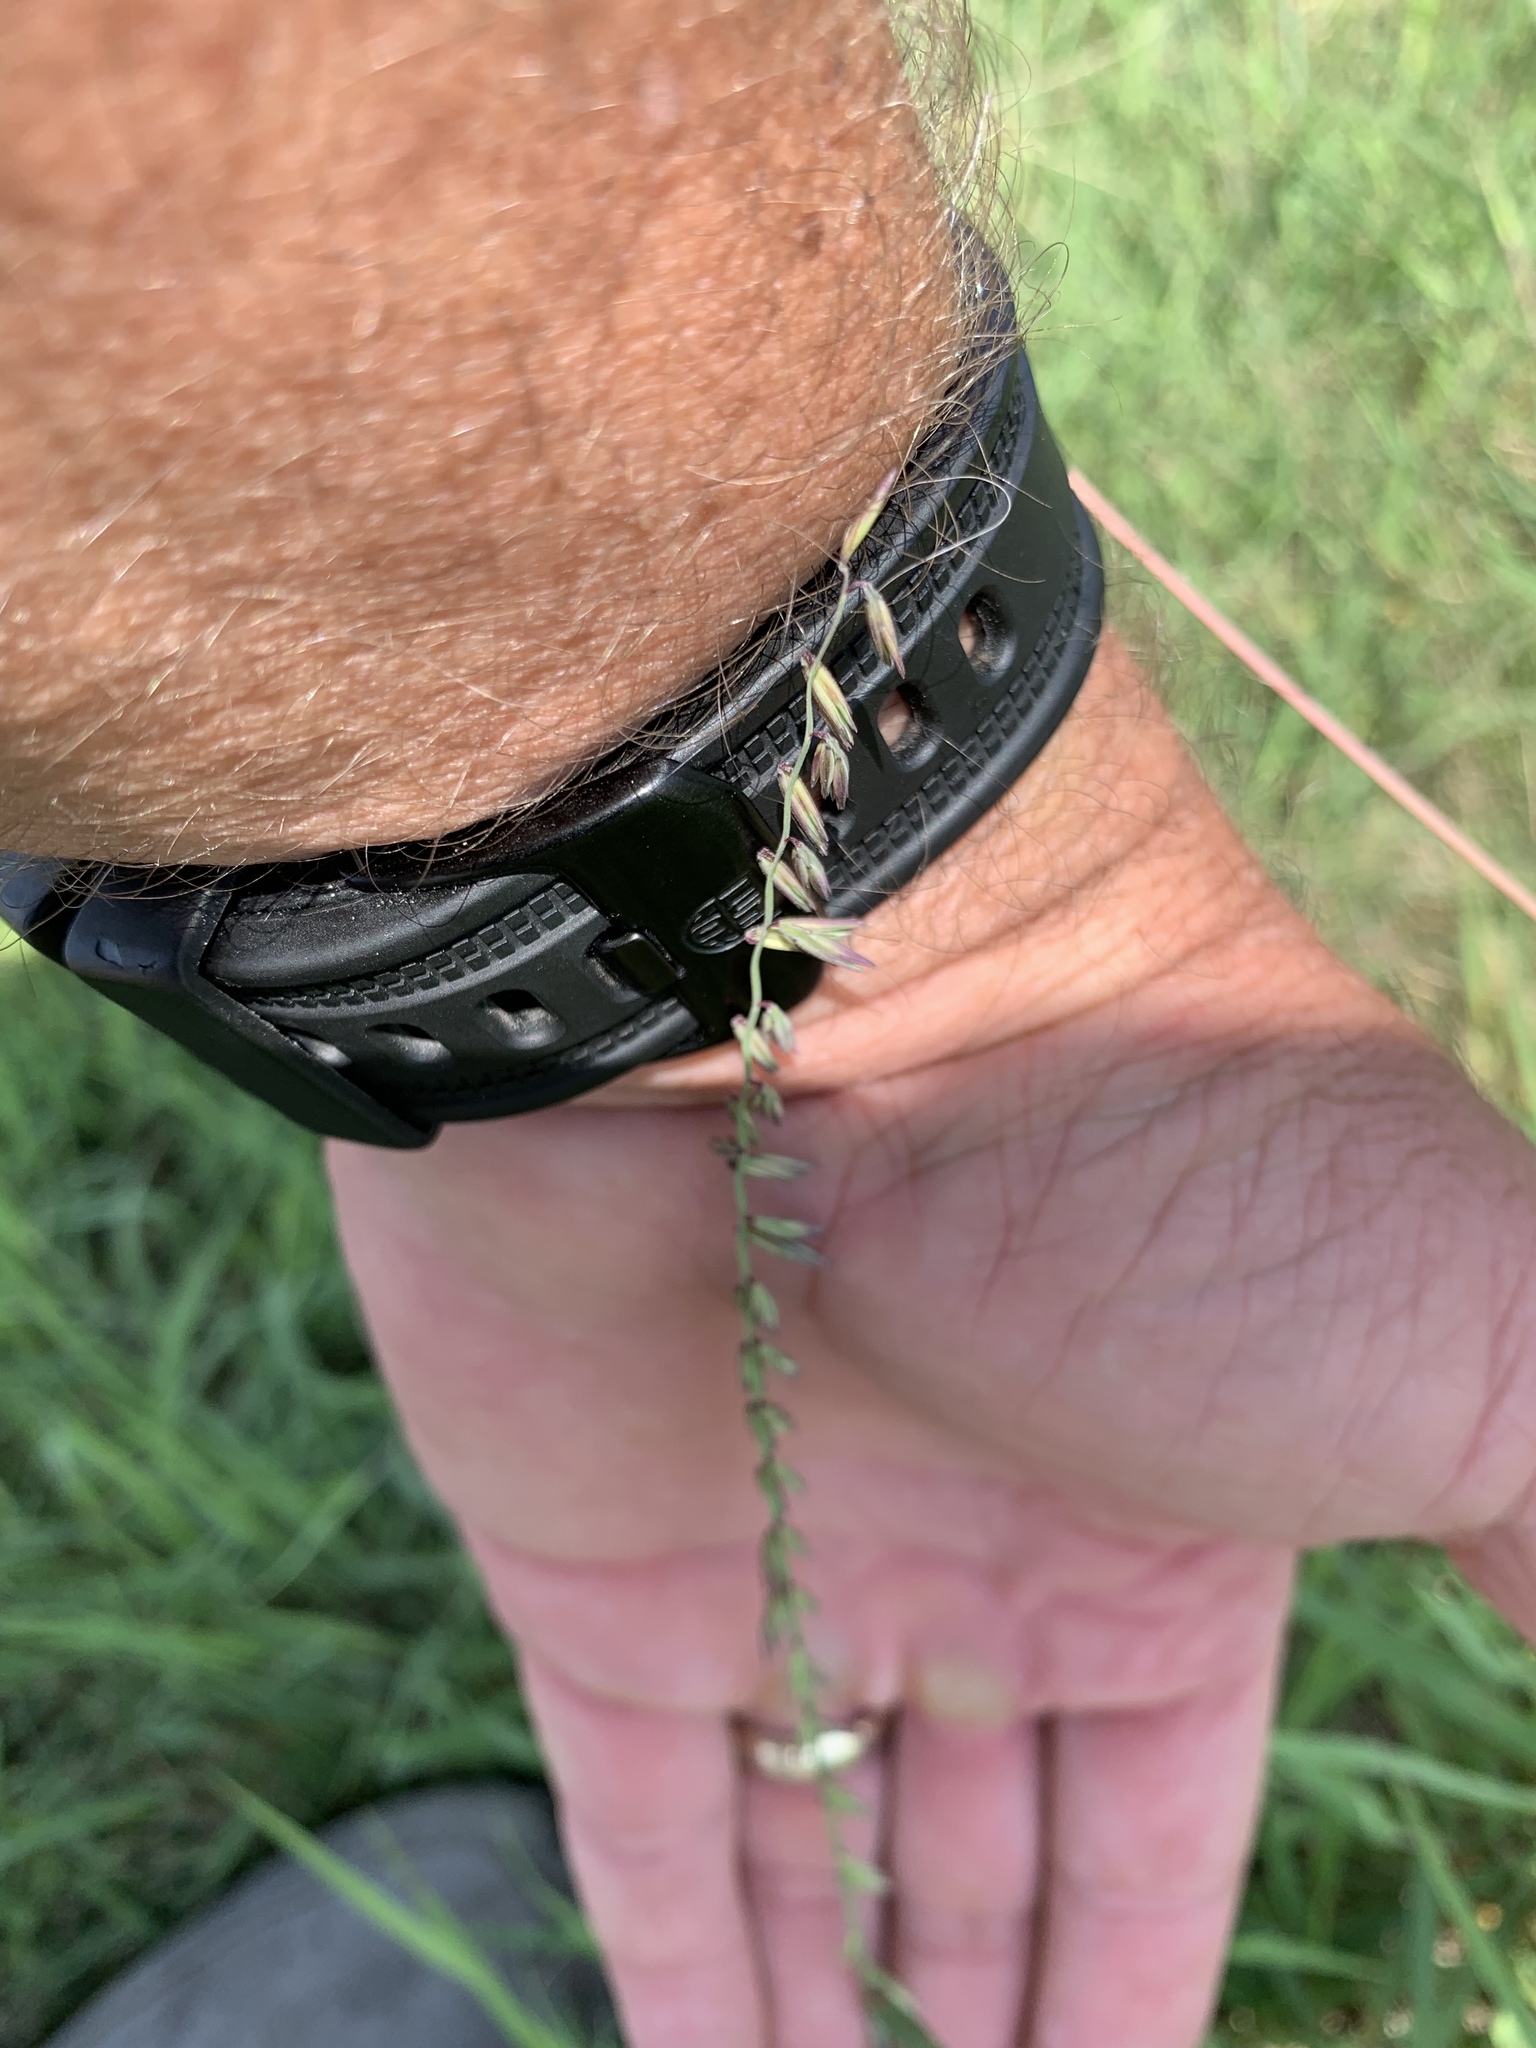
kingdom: Plantae
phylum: Tracheophyta
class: Liliopsida
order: Poales
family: Poaceae
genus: Bouteloua
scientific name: Bouteloua curtipendula
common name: Side-oats grama
